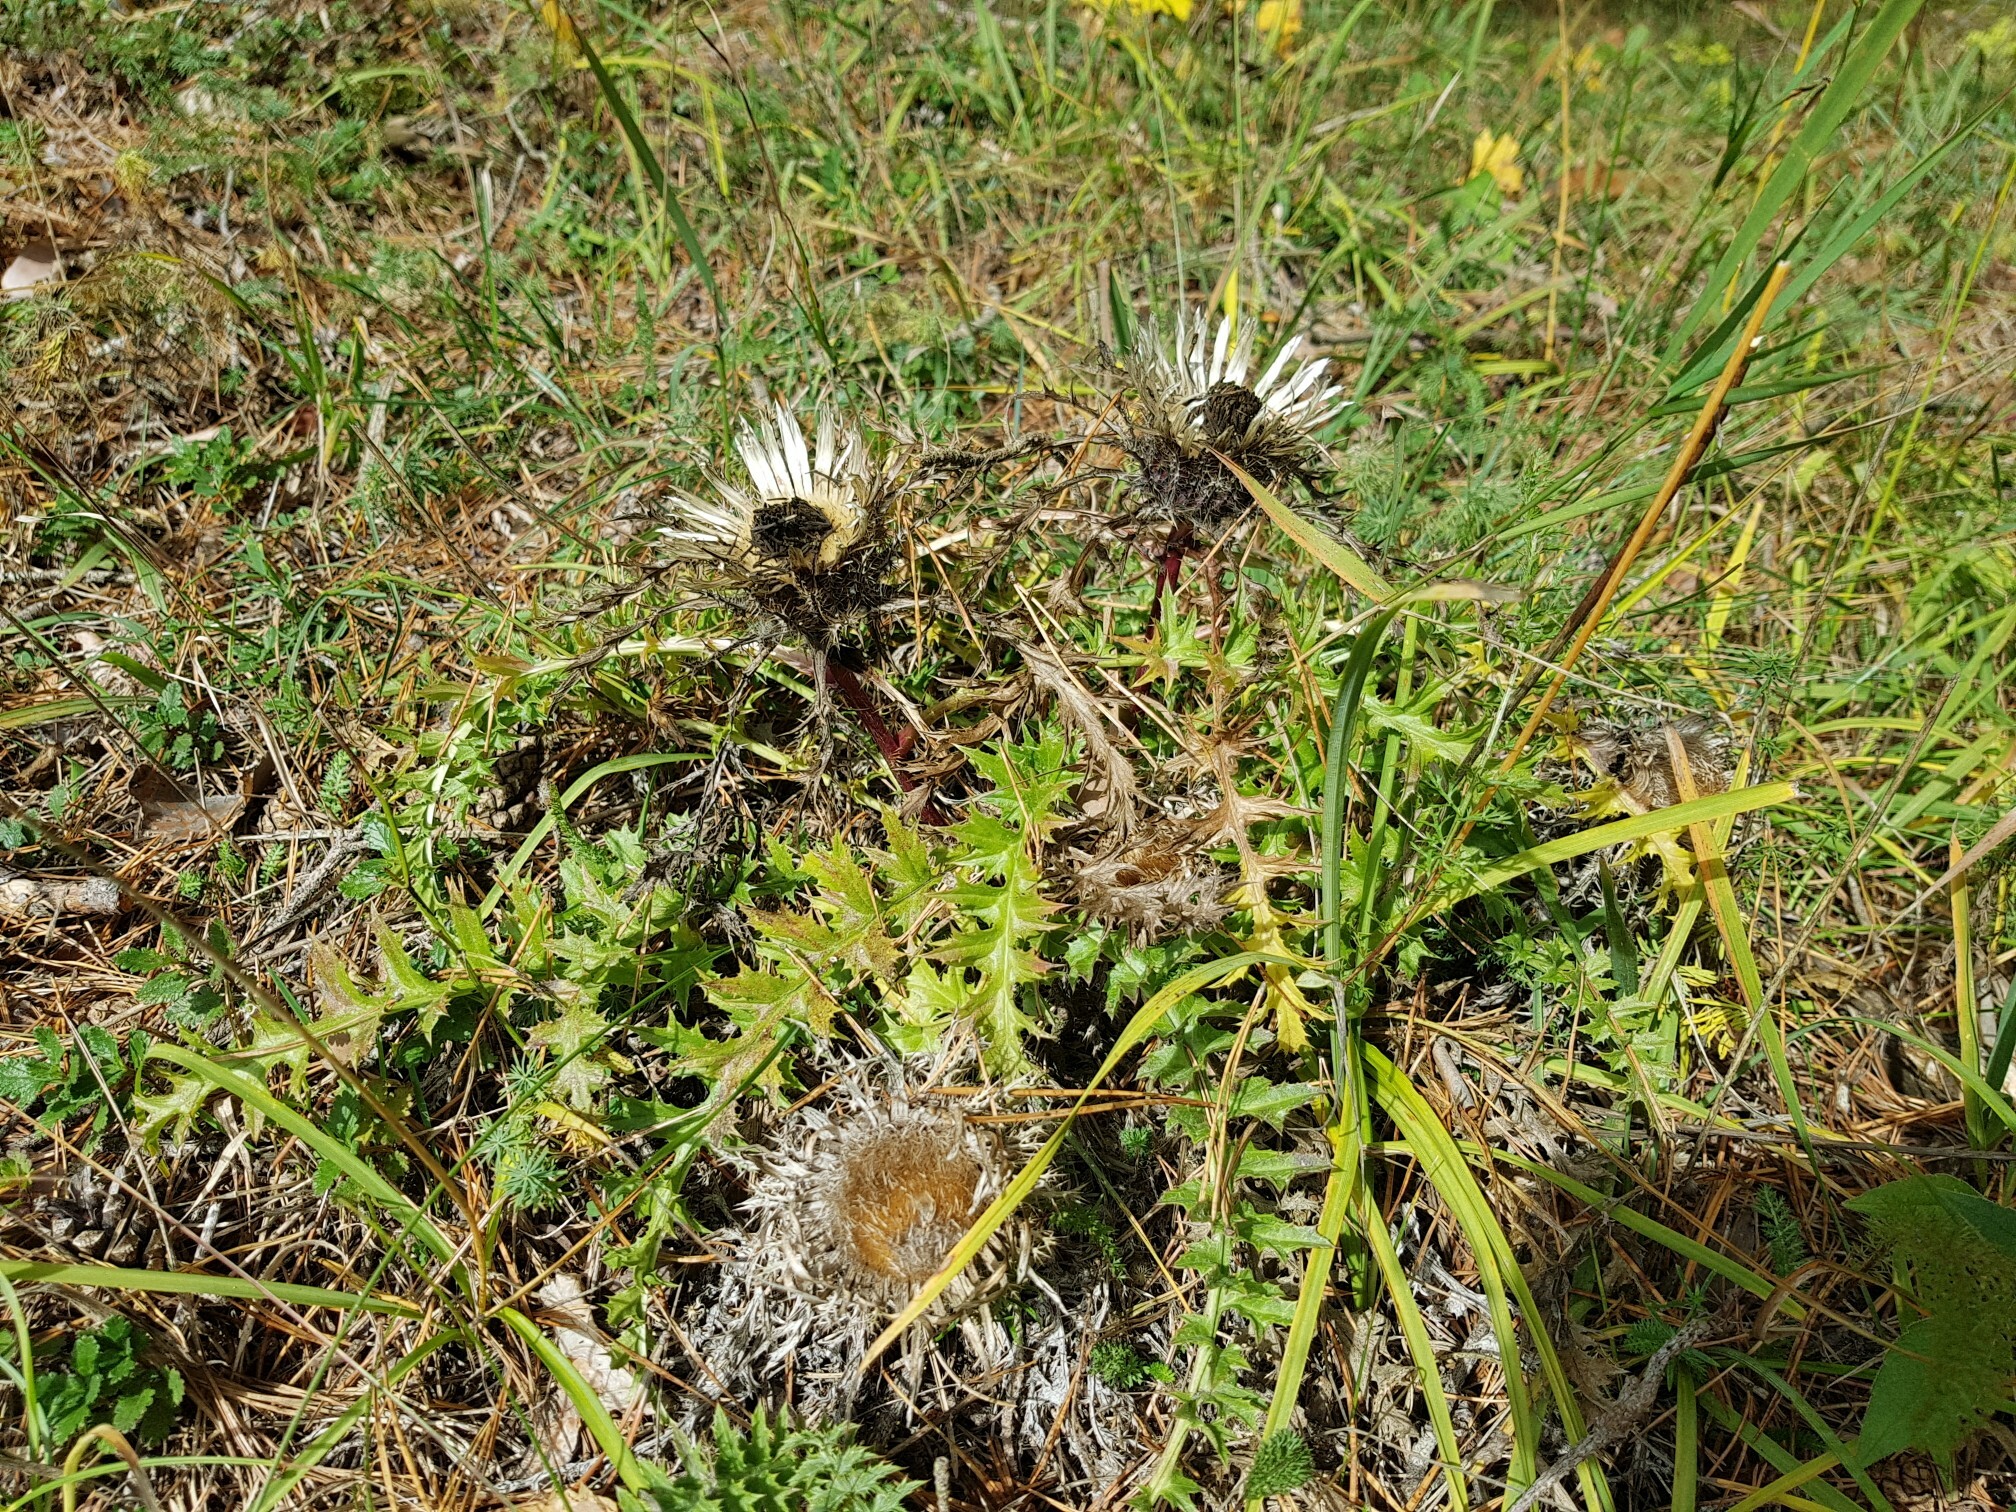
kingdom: Plantae
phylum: Tracheophyta
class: Magnoliopsida
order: Asterales
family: Asteraceae
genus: Carlina
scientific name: Carlina acaulis
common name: Stemless carline thistle
